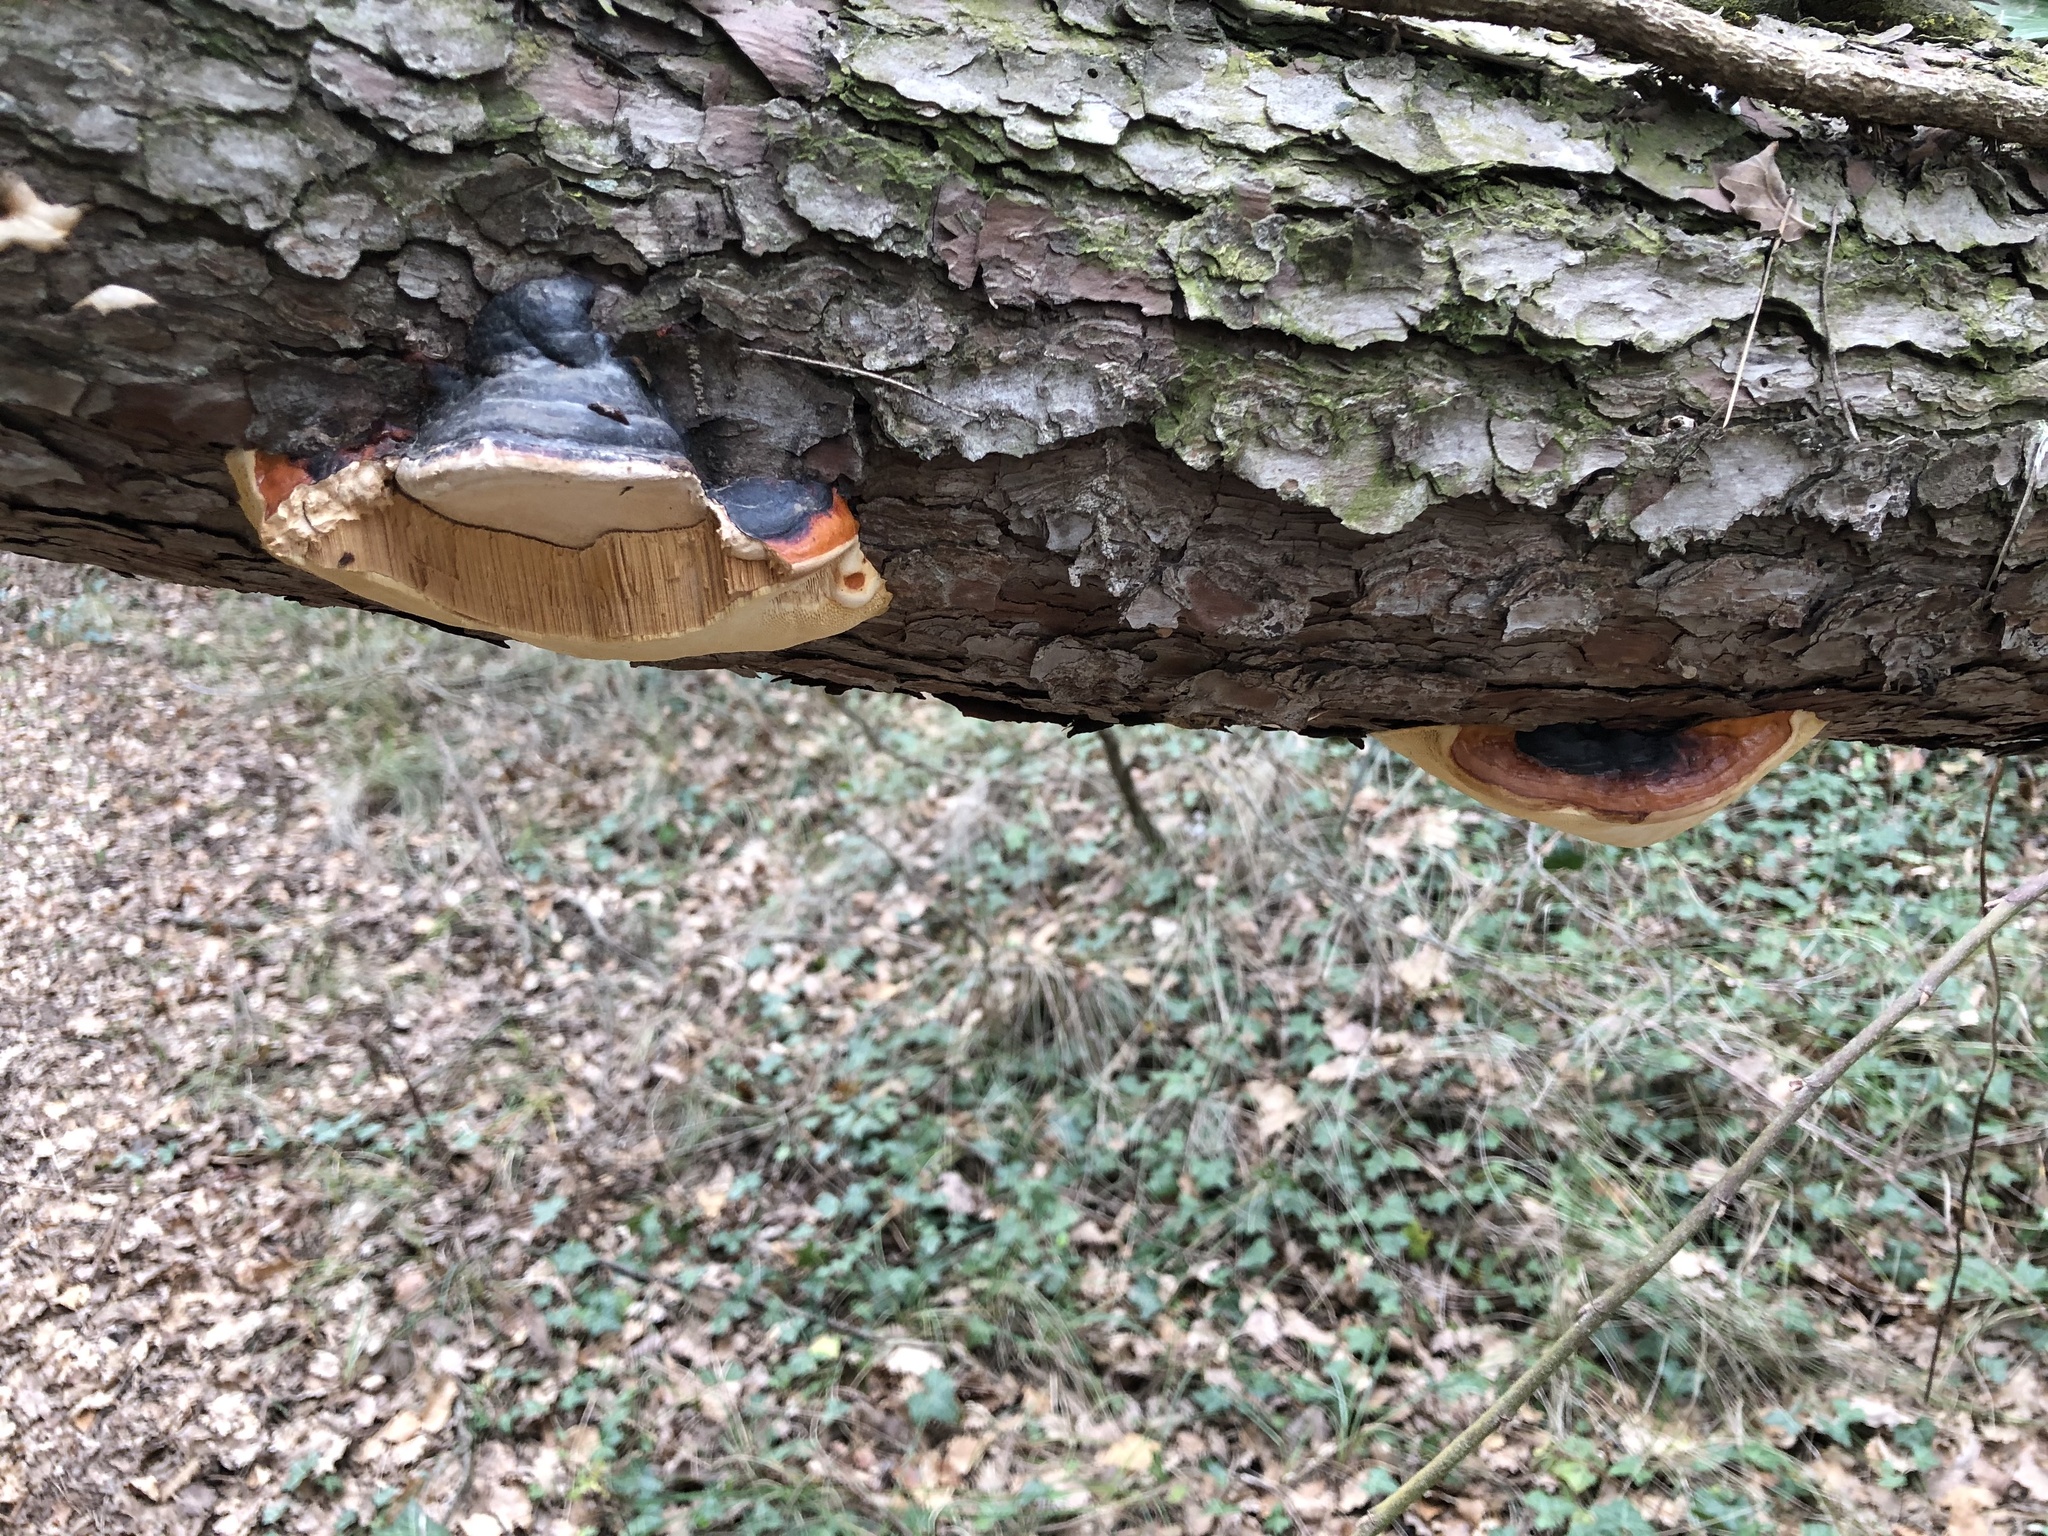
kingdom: Fungi
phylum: Basidiomycota
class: Agaricomycetes
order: Polyporales
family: Fomitopsidaceae
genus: Fomitopsis
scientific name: Fomitopsis pinicola
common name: Red-belted bracket
